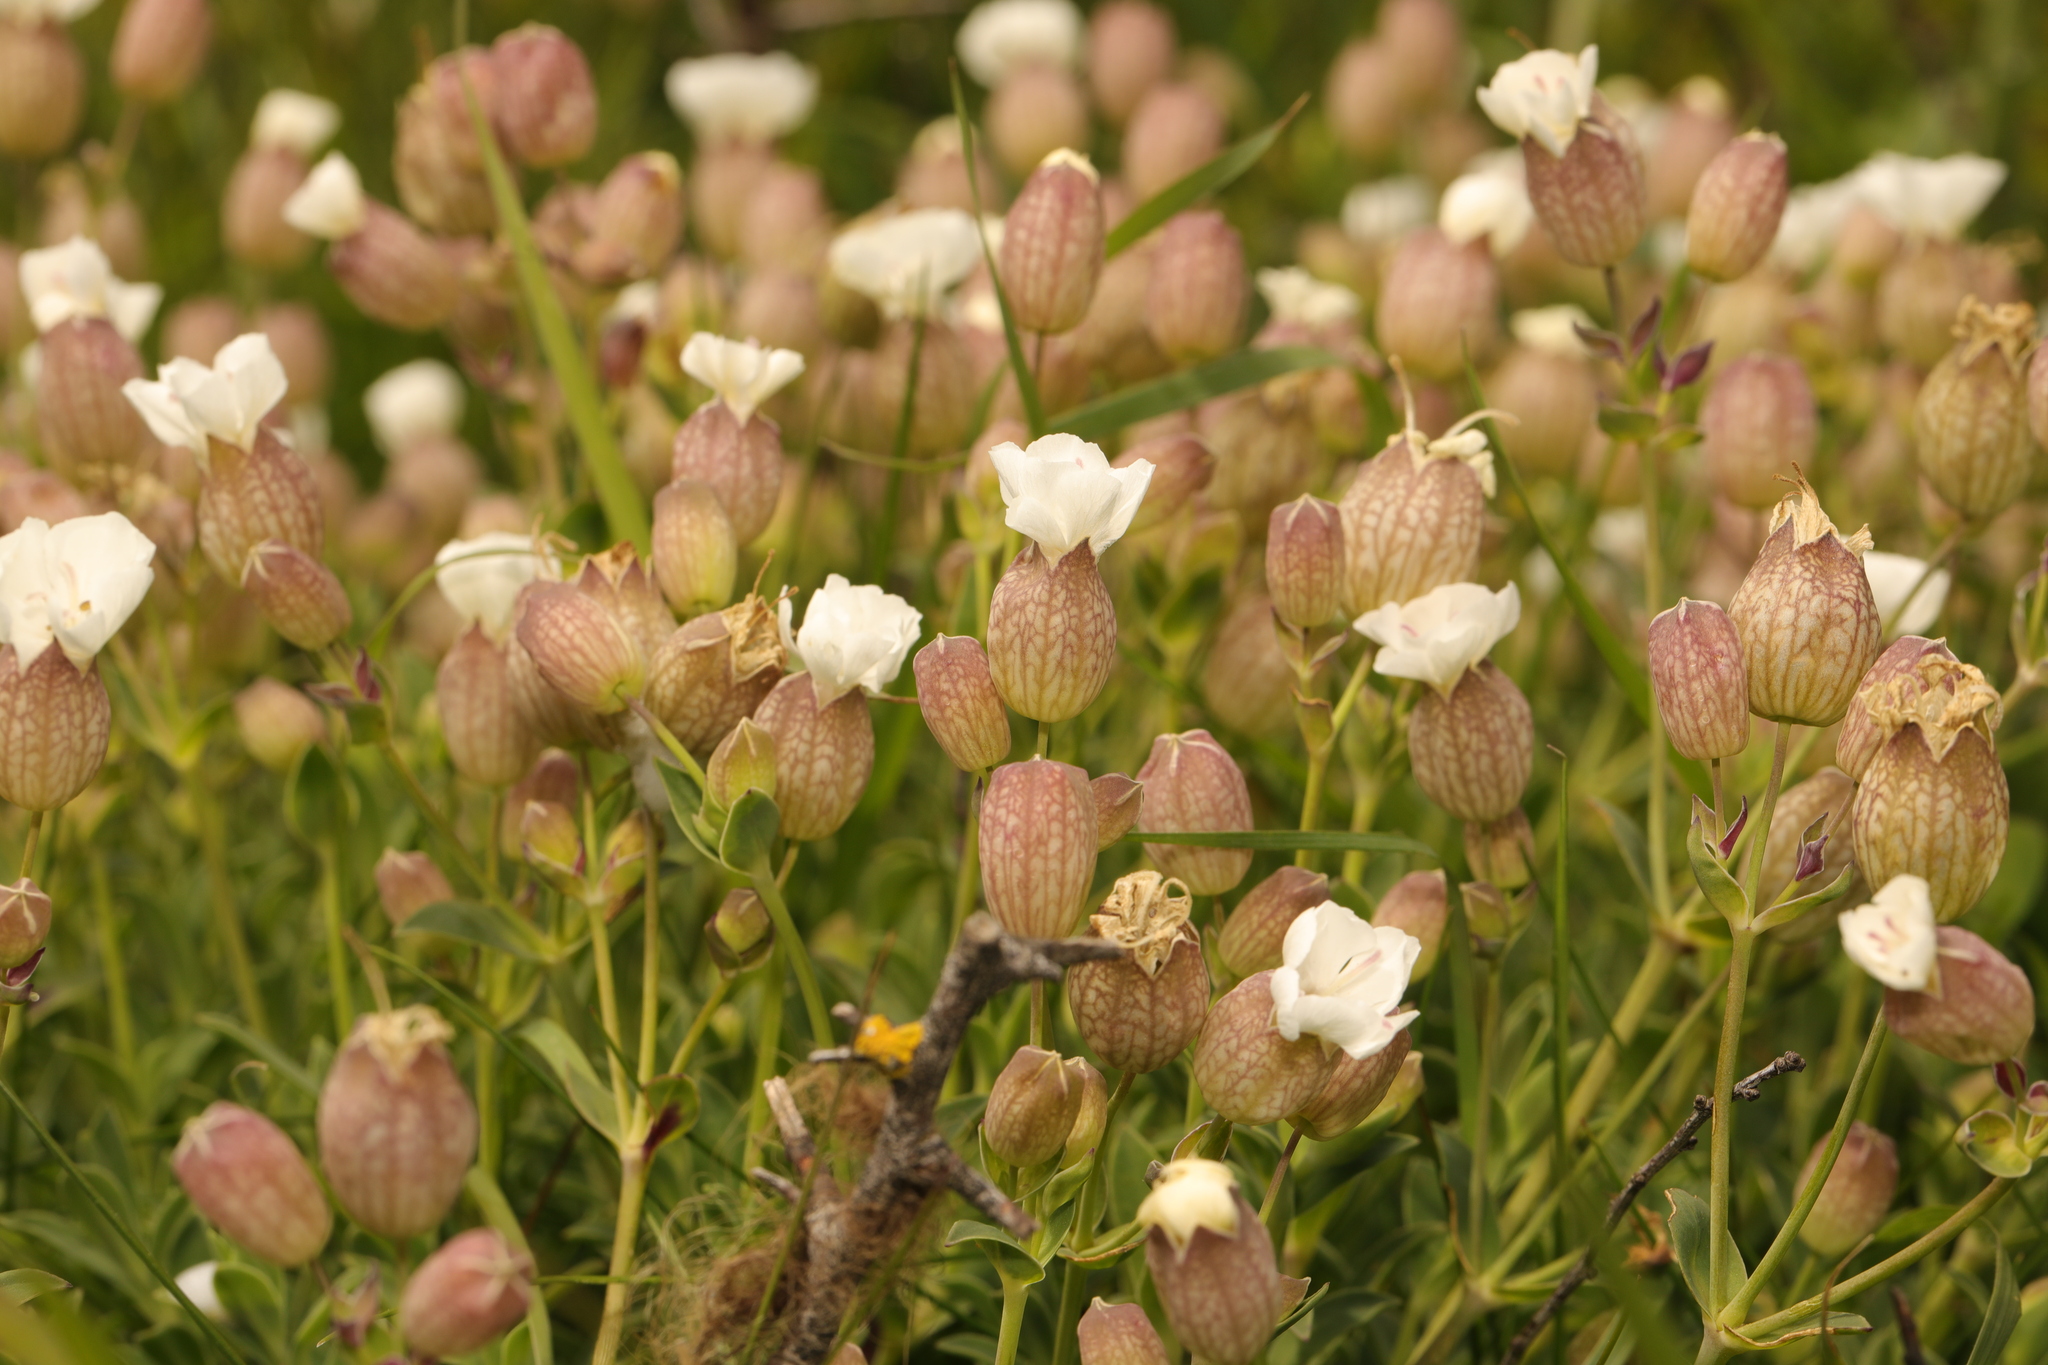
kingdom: Plantae
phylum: Tracheophyta
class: Magnoliopsida
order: Caryophyllales
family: Caryophyllaceae
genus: Silene
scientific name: Silene uniflora
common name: Sea campion
